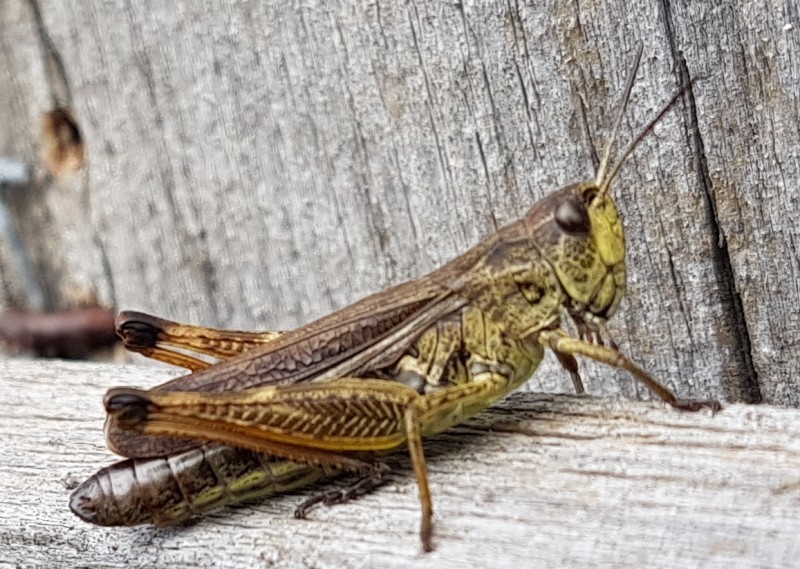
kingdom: Animalia
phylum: Arthropoda
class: Insecta
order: Orthoptera
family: Acrididae
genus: Stauroderus
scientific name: Stauroderus scalaris
